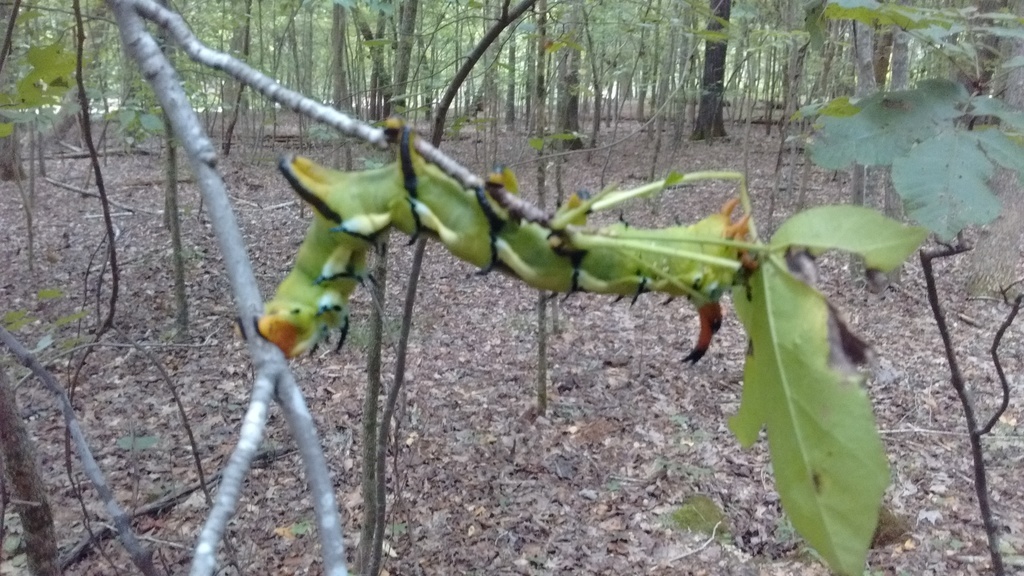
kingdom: Animalia
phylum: Arthropoda
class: Insecta
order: Lepidoptera
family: Saturniidae
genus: Citheronia
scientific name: Citheronia regalis
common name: Hickory horned devil
